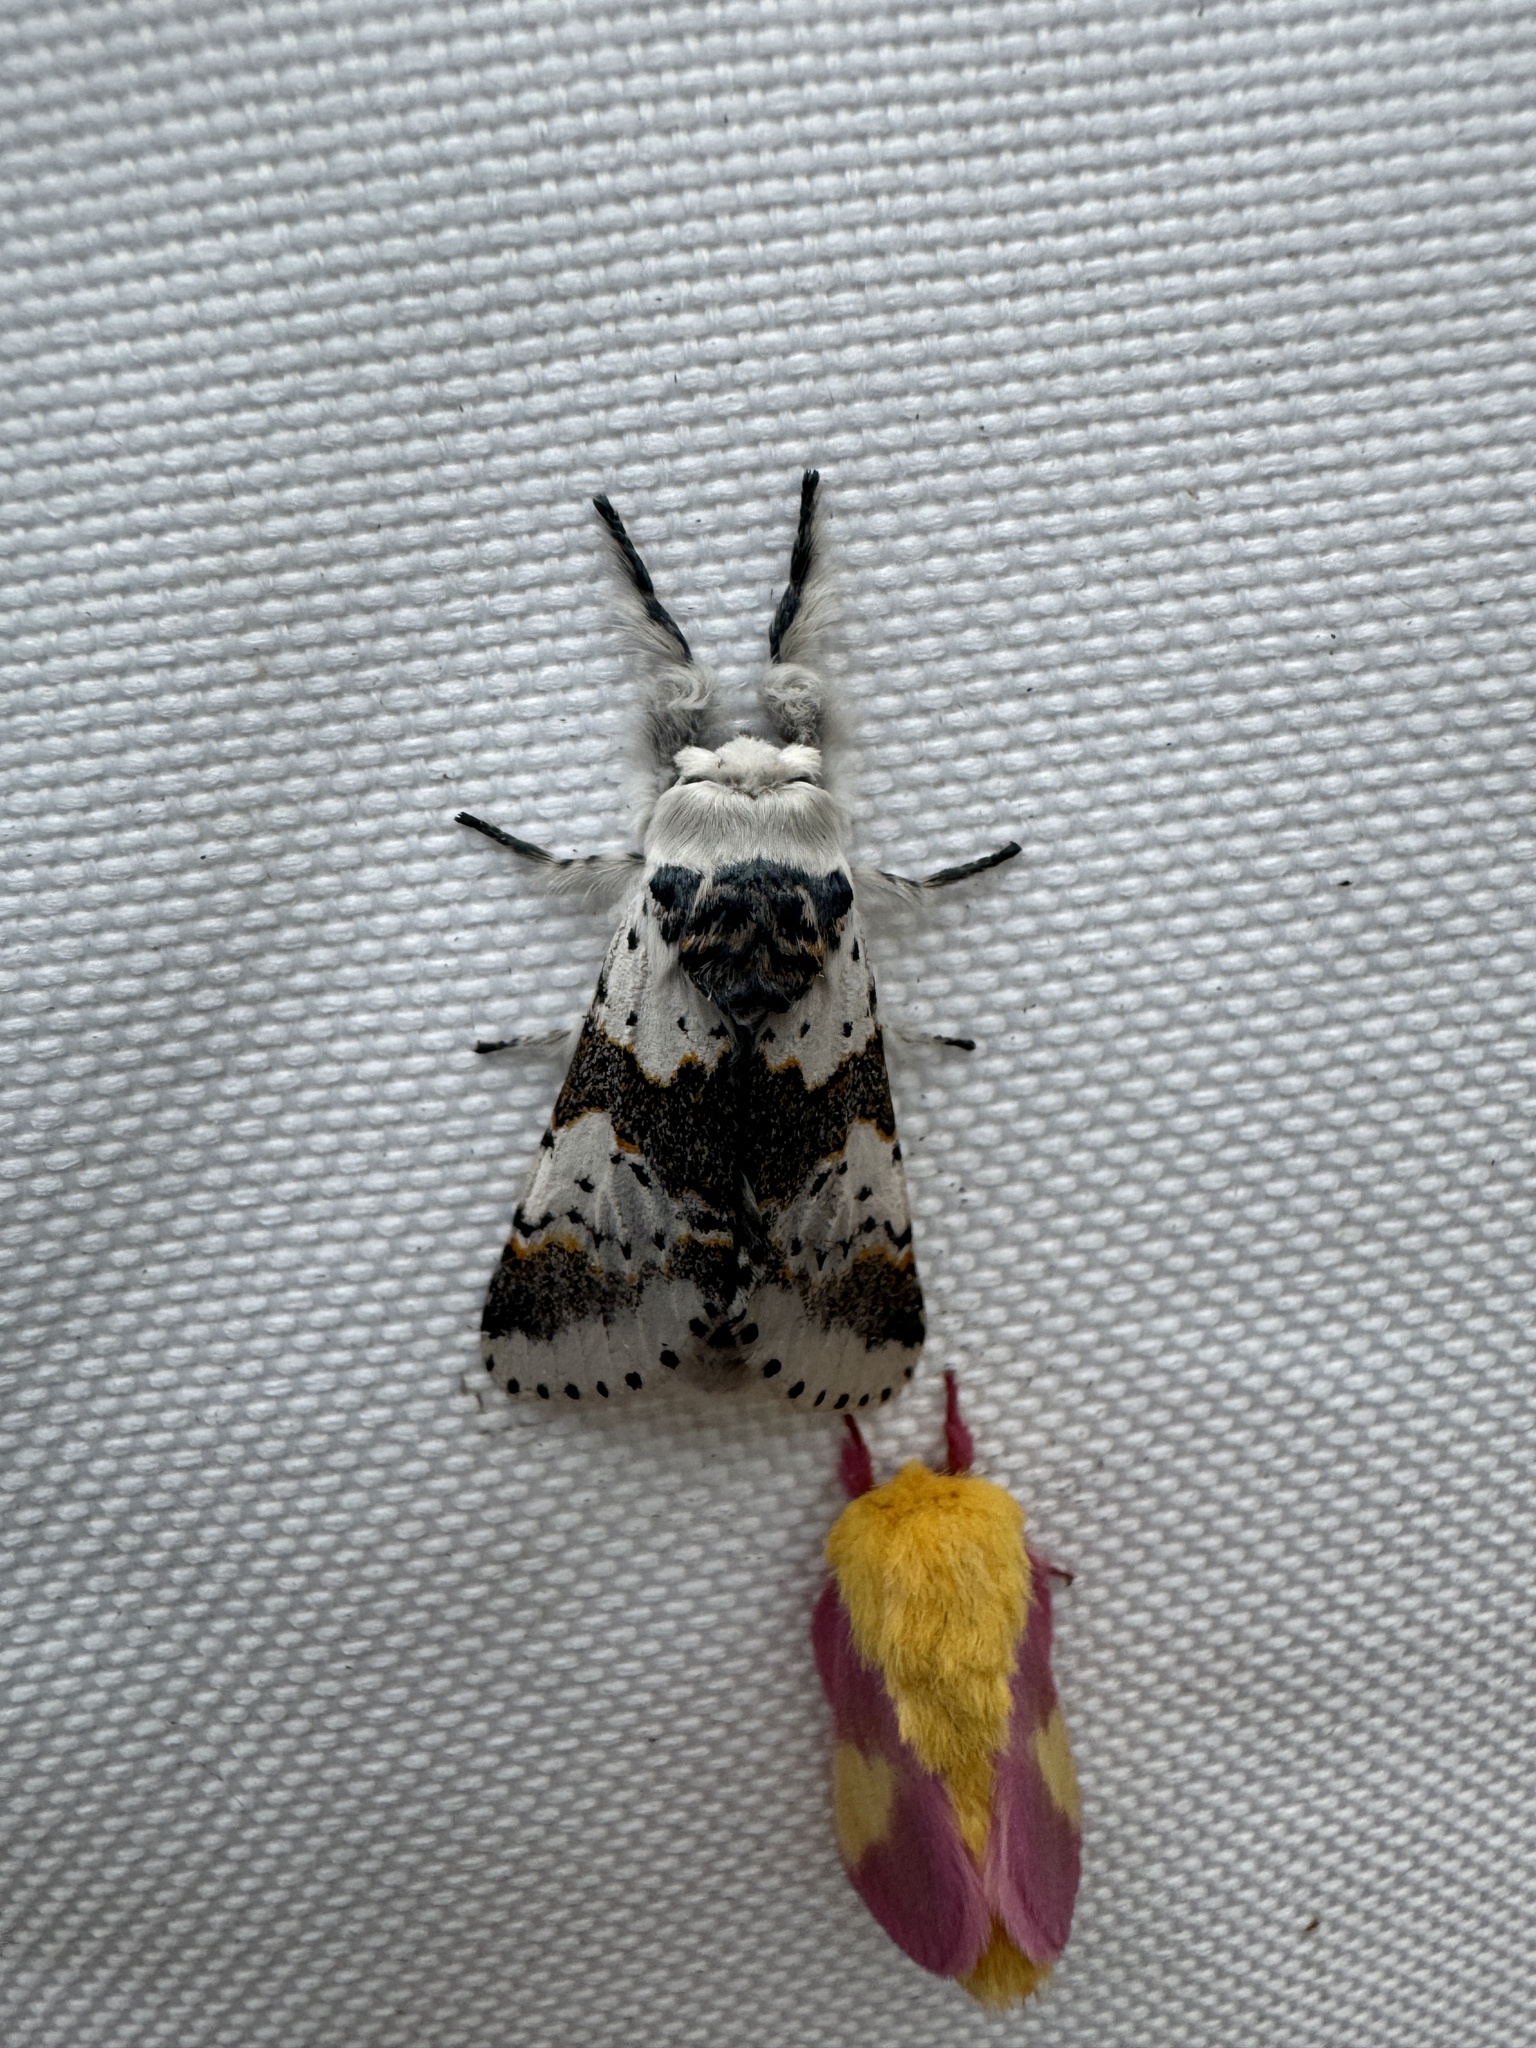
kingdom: Animalia
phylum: Arthropoda
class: Insecta
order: Lepidoptera
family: Notodontidae
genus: Furcula
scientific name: Furcula borealis
